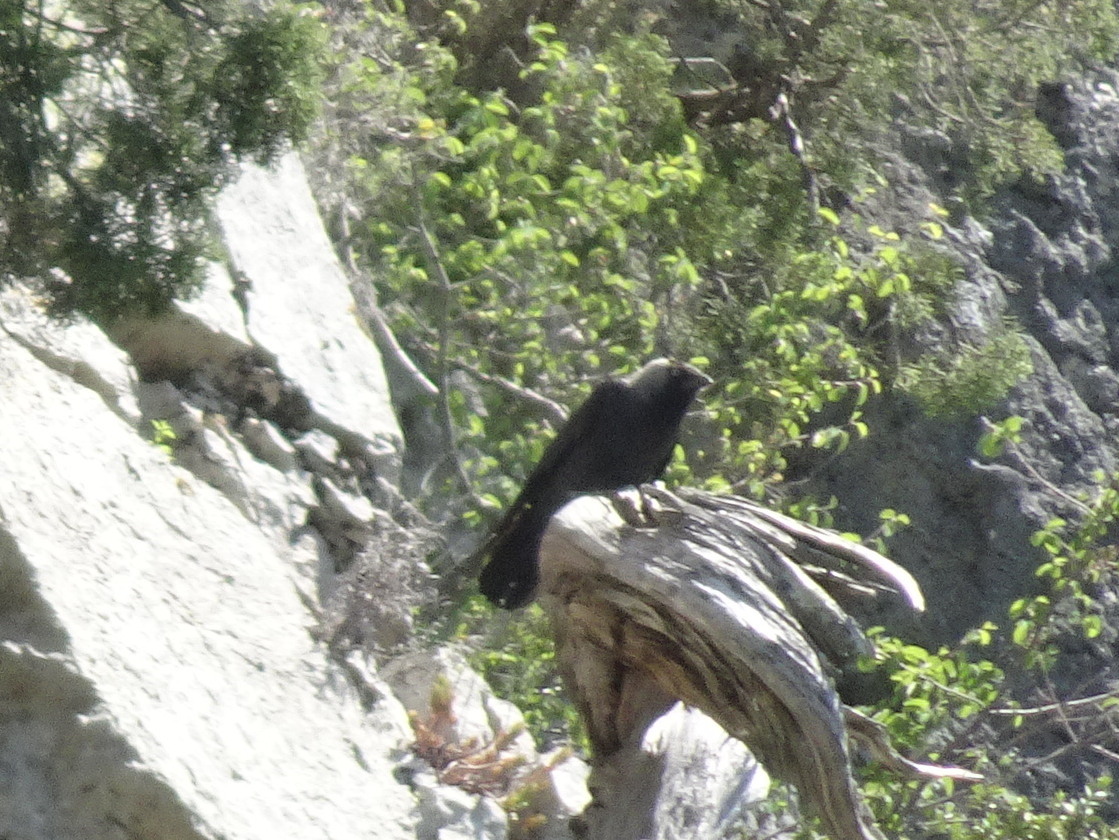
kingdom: Animalia
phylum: Chordata
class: Aves
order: Passeriformes
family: Corvidae
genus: Coloeus
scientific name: Coloeus monedula
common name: Western jackdaw
